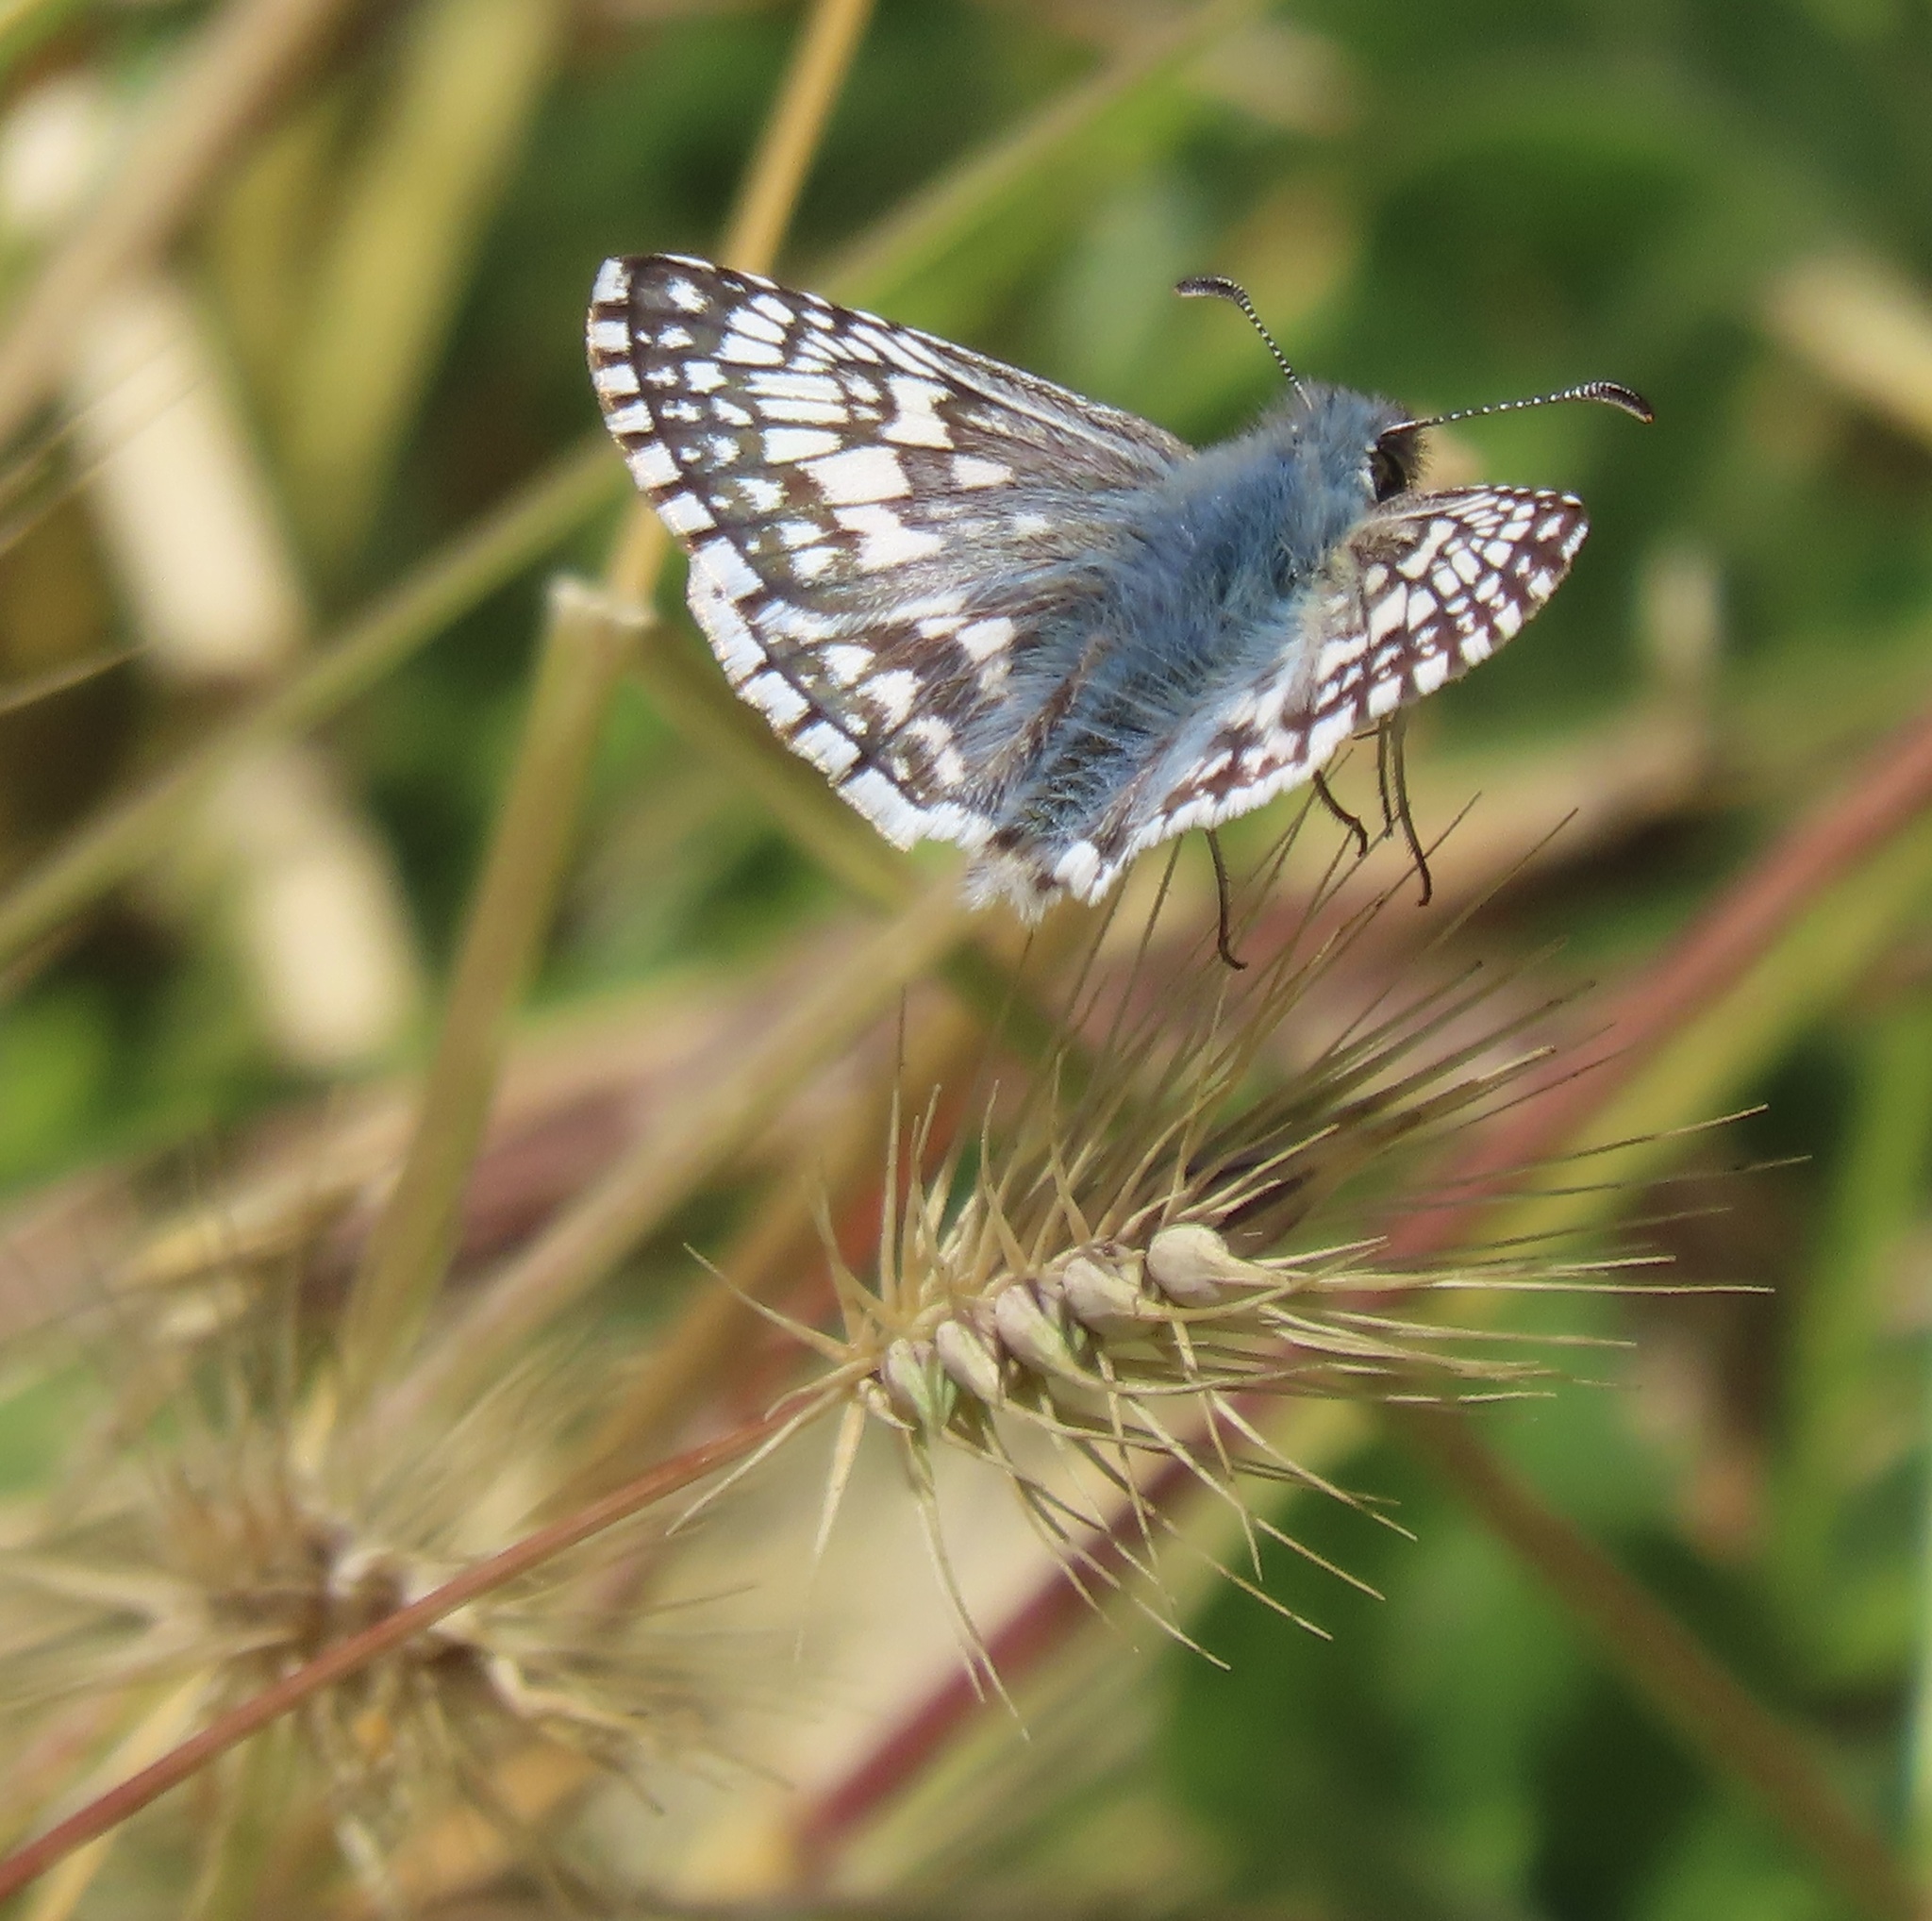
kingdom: Animalia
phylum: Arthropoda
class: Insecta
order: Lepidoptera
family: Hesperiidae
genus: Burnsius
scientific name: Burnsius communis
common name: Common checkered-skipper
